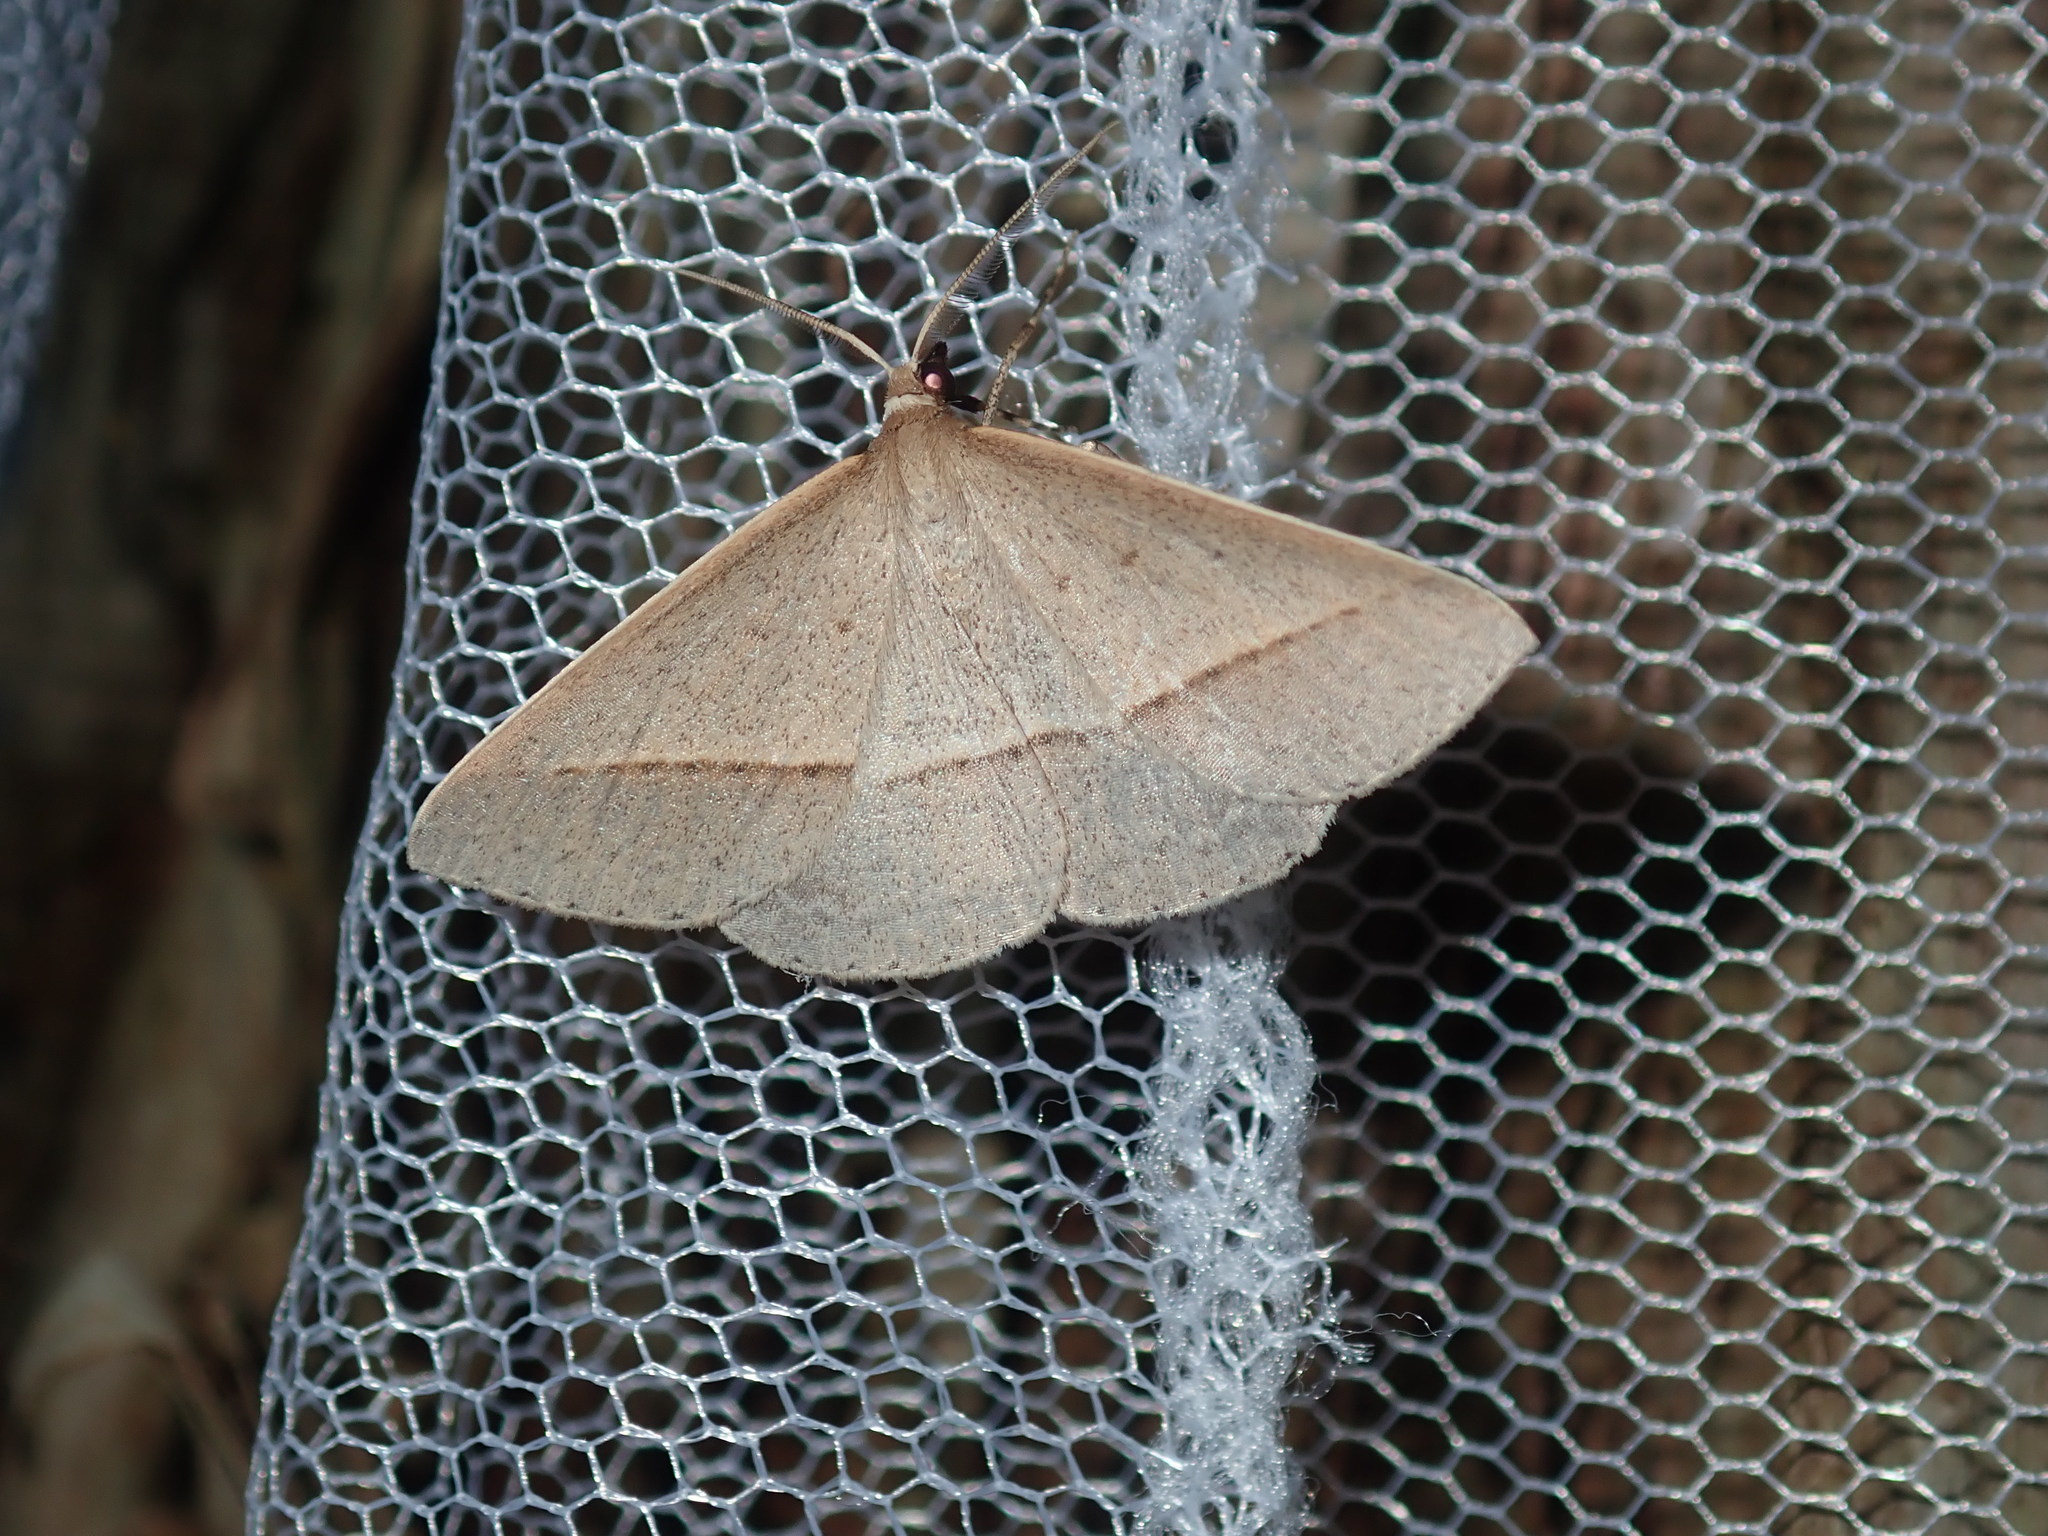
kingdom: Animalia
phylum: Arthropoda
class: Insecta
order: Lepidoptera
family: Geometridae
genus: Epidesmia
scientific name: Epidesmia tryxaria
